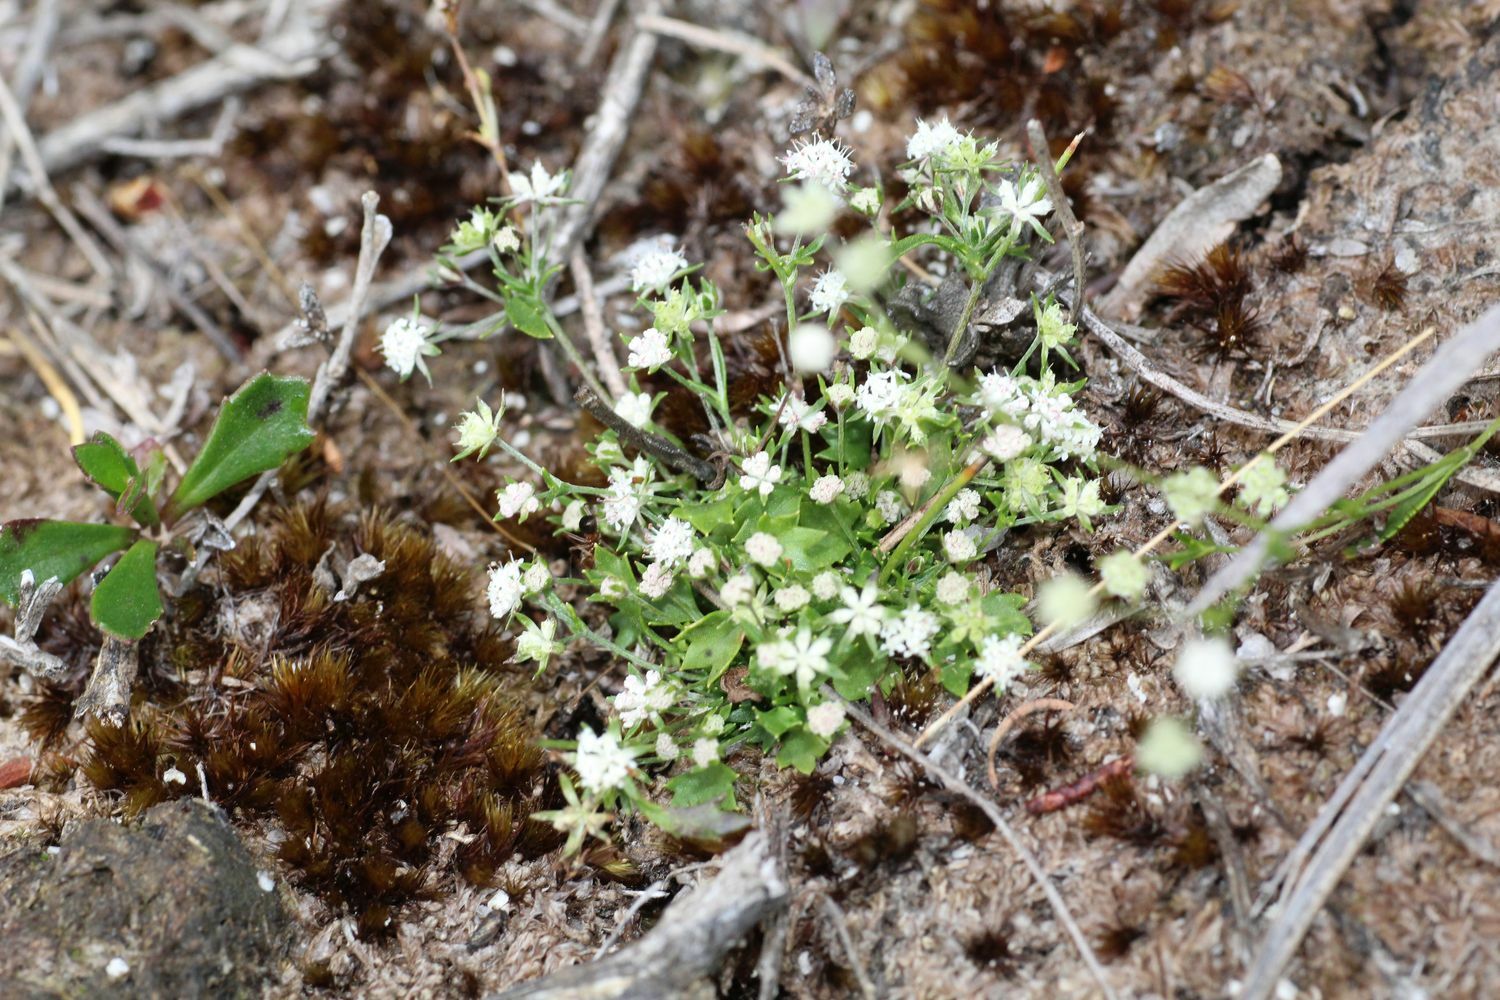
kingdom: Plantae
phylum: Tracheophyta
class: Magnoliopsida
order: Apiales
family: Apiaceae
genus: Actinotus
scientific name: Actinotus omnifertilis
